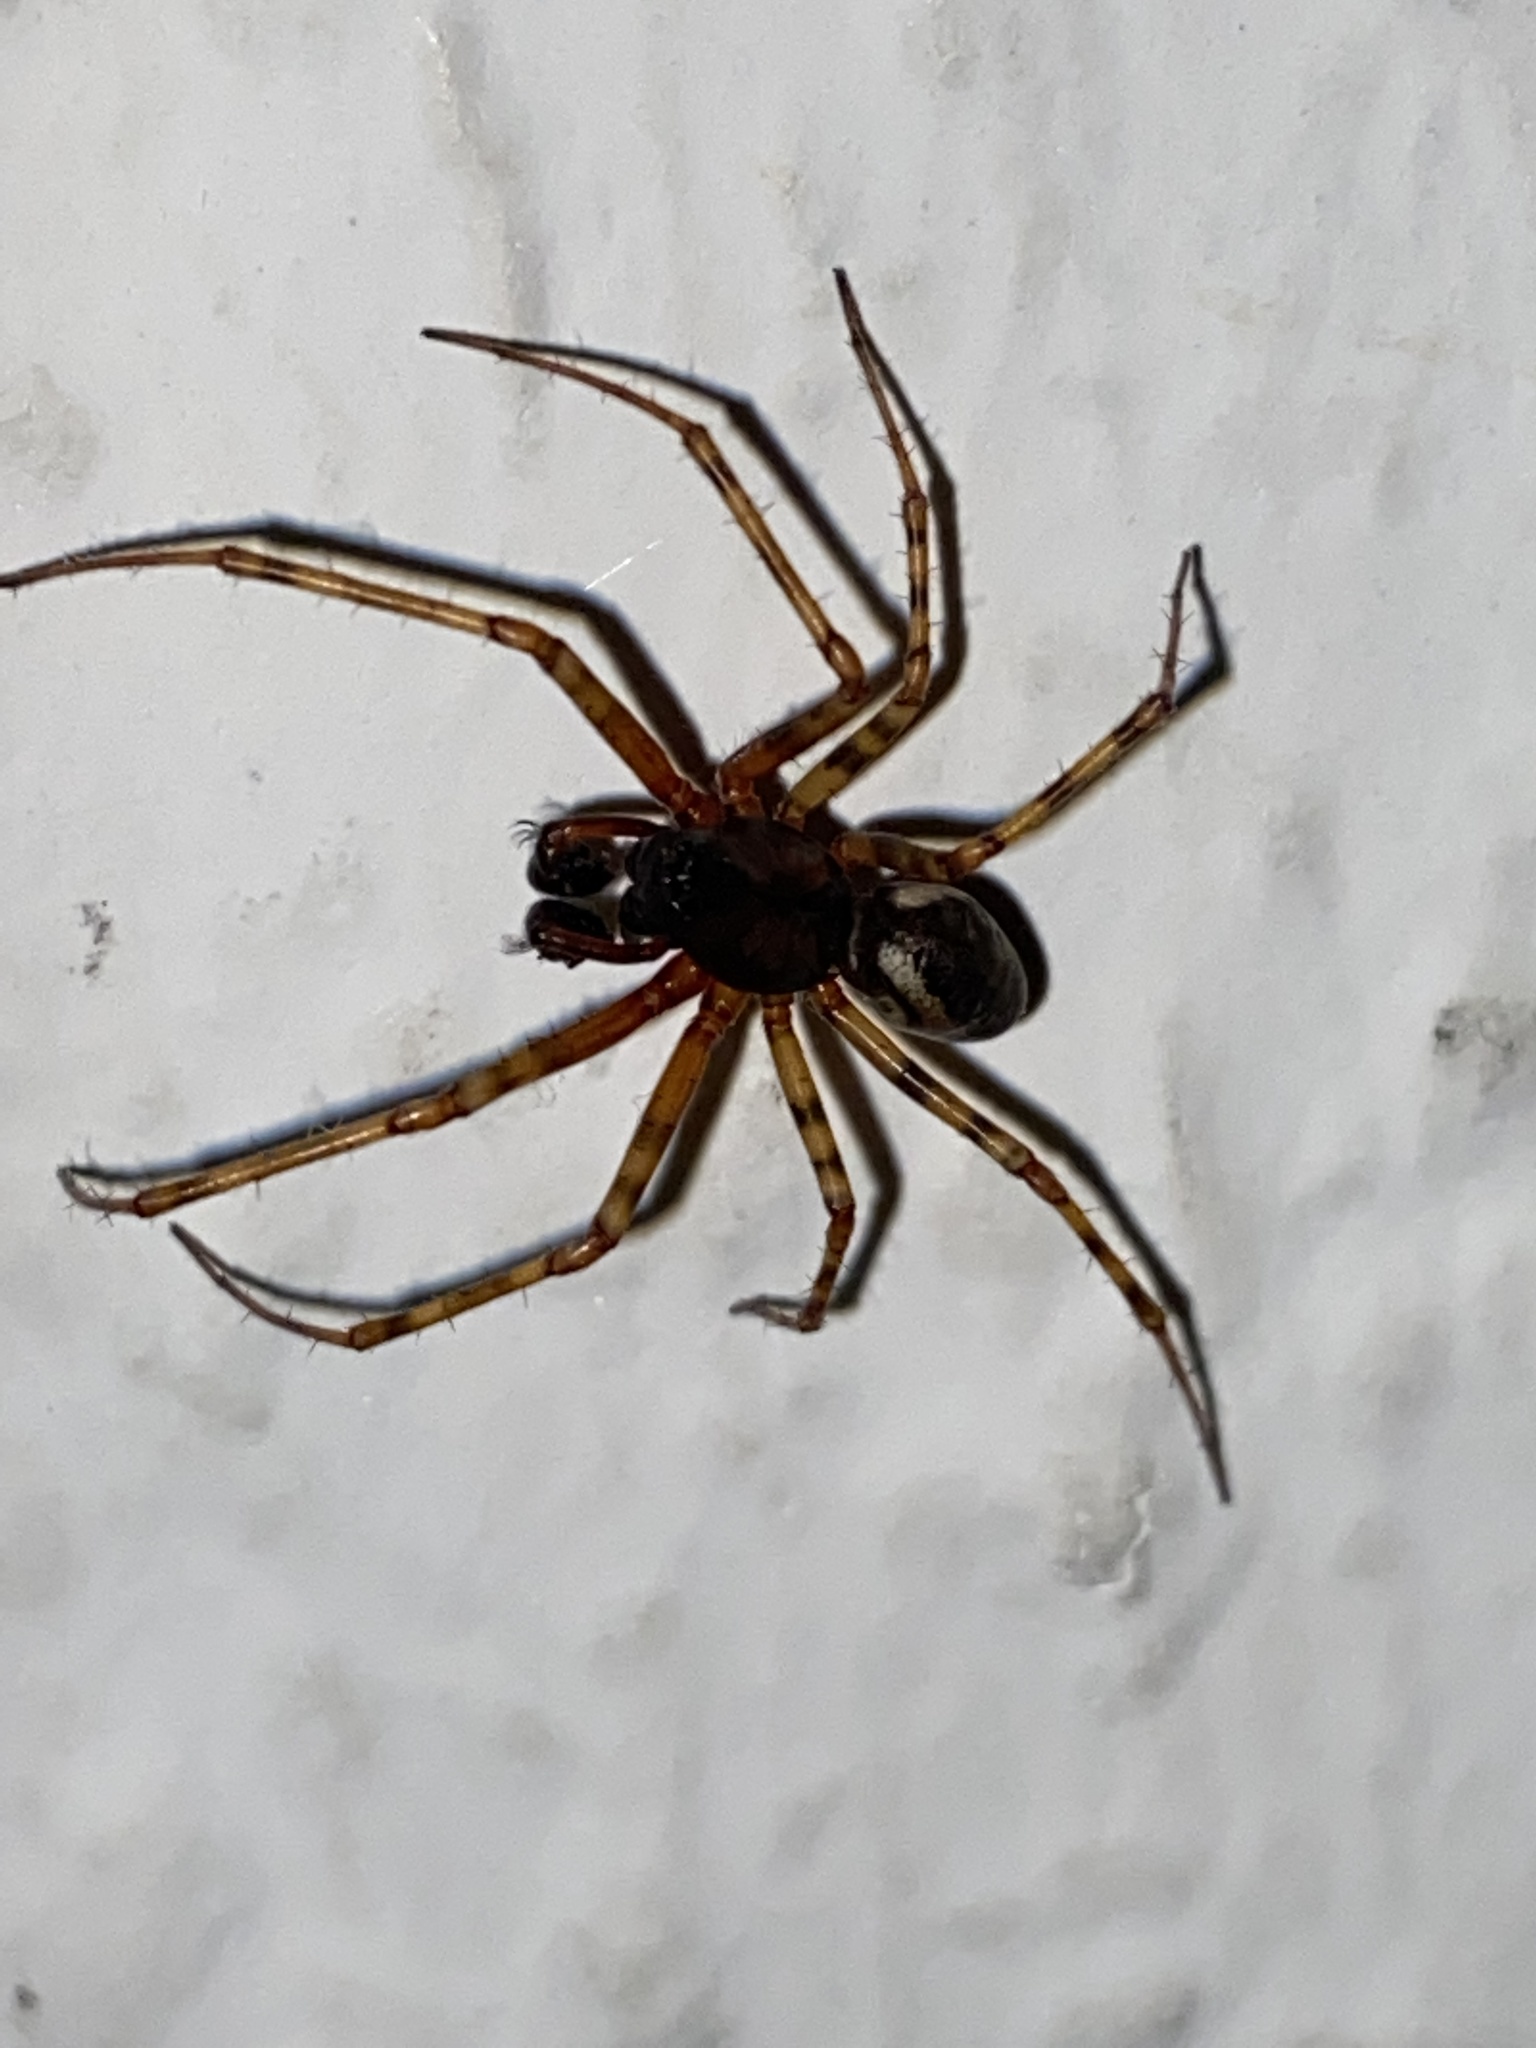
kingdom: Animalia
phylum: Arthropoda
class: Arachnida
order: Araneae
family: Linyphiidae
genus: Neriene
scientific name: Neriene montana
